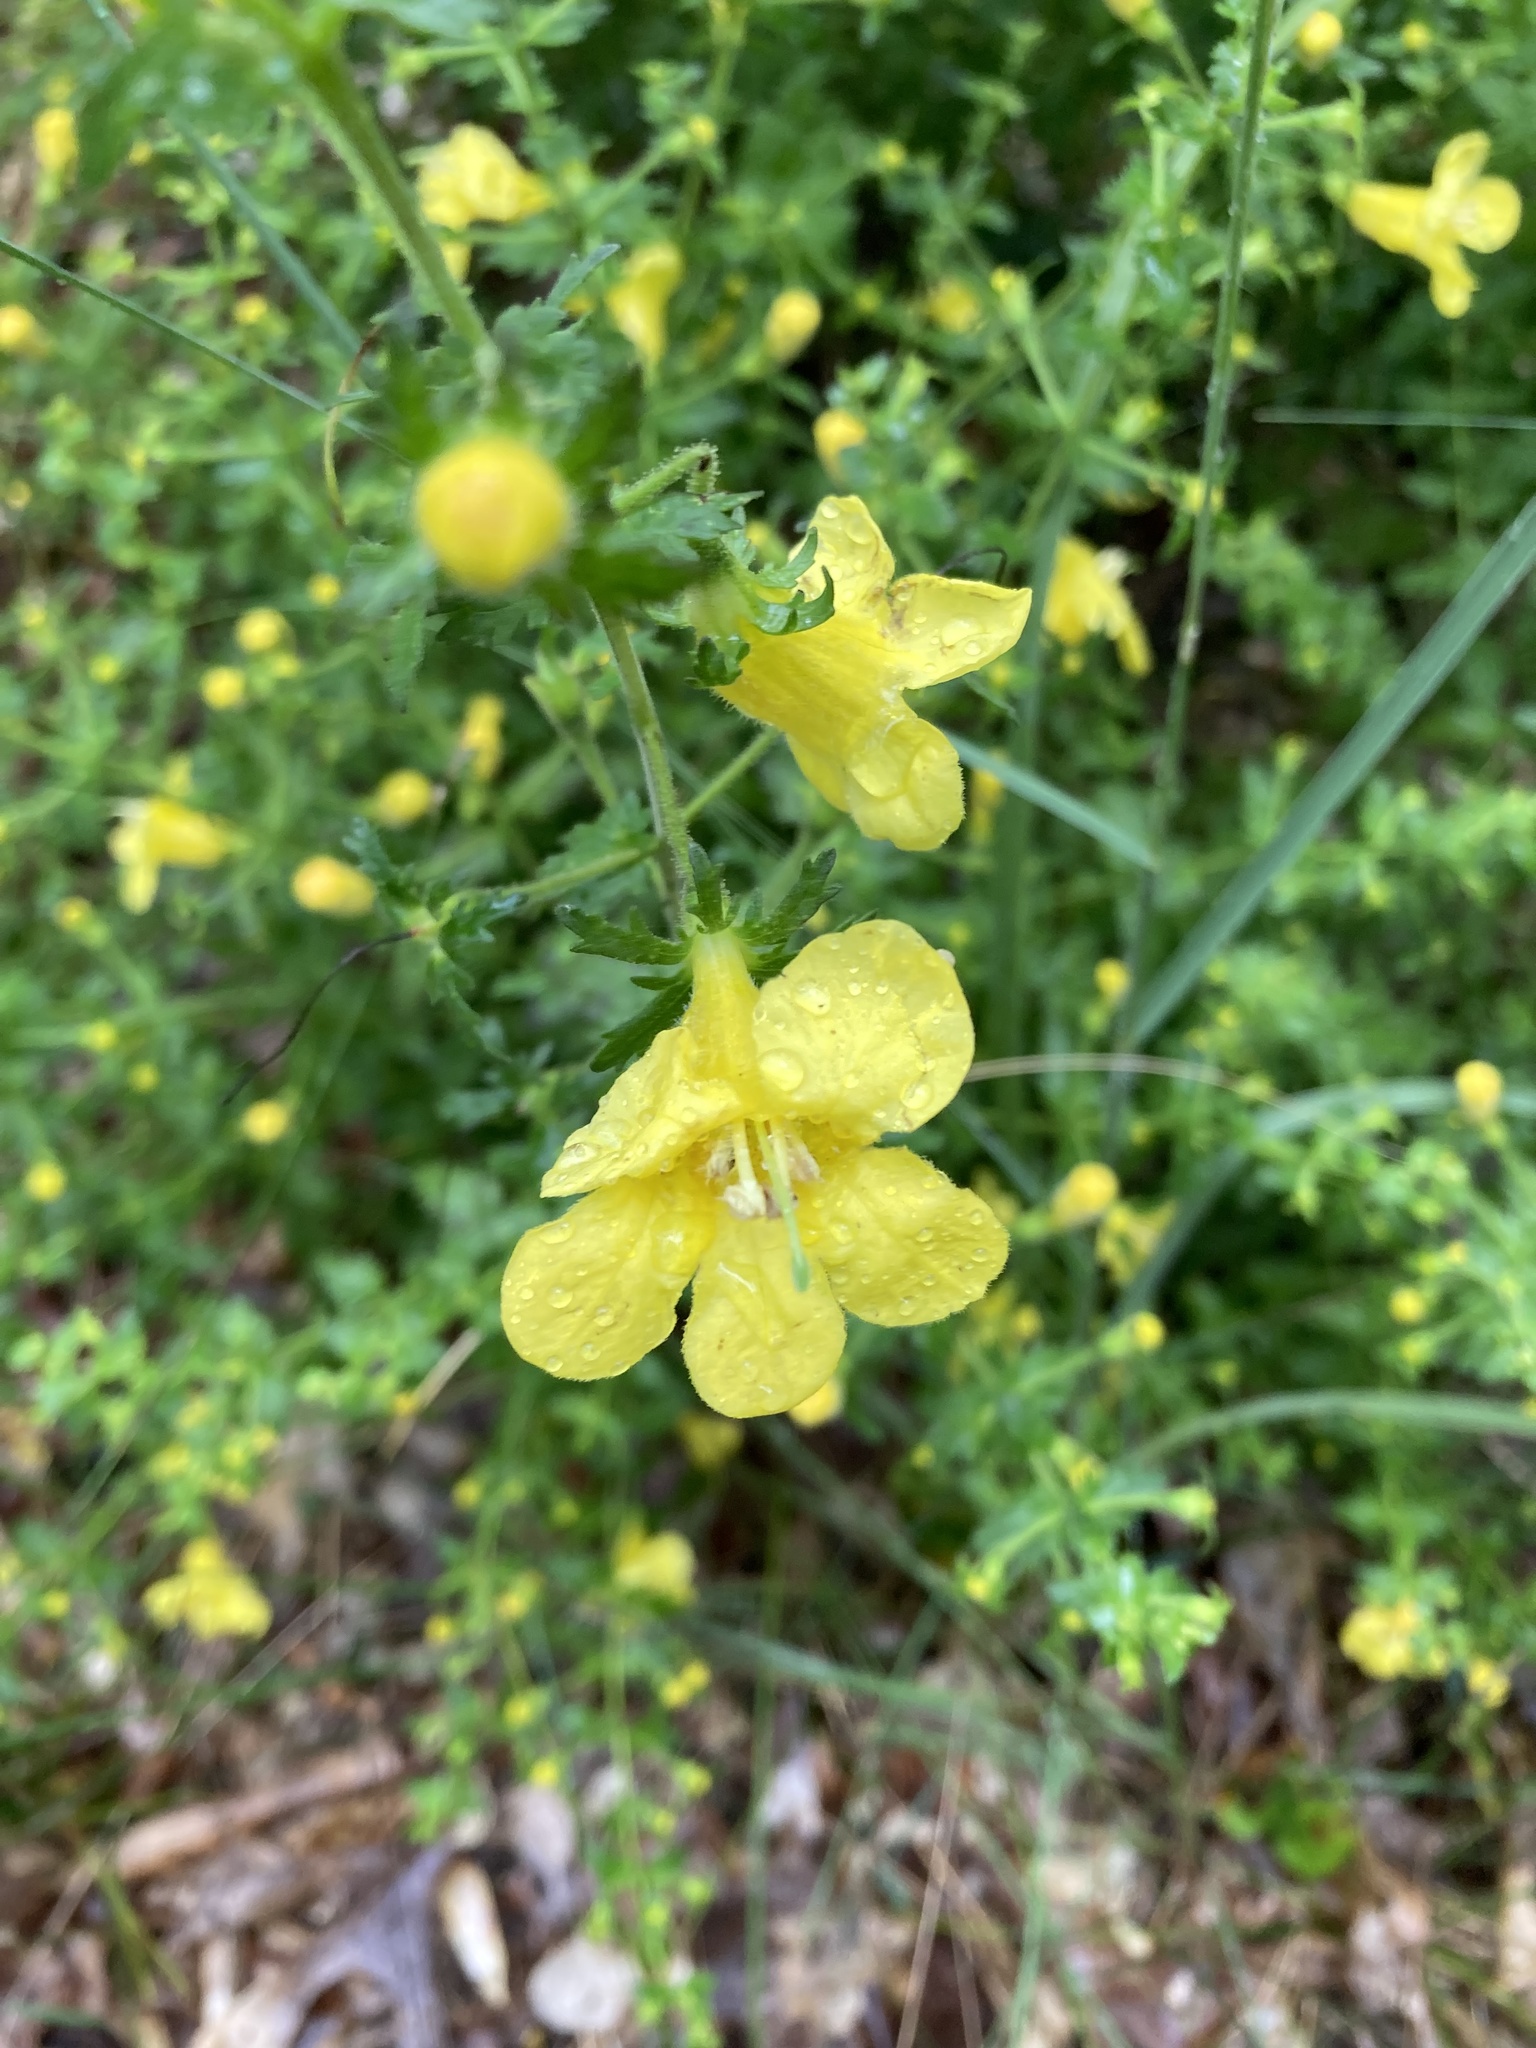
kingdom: Plantae
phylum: Tracheophyta
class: Magnoliopsida
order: Lamiales
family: Orobanchaceae
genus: Aureolaria
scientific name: Aureolaria pedicularia
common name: Annual false foxglove
